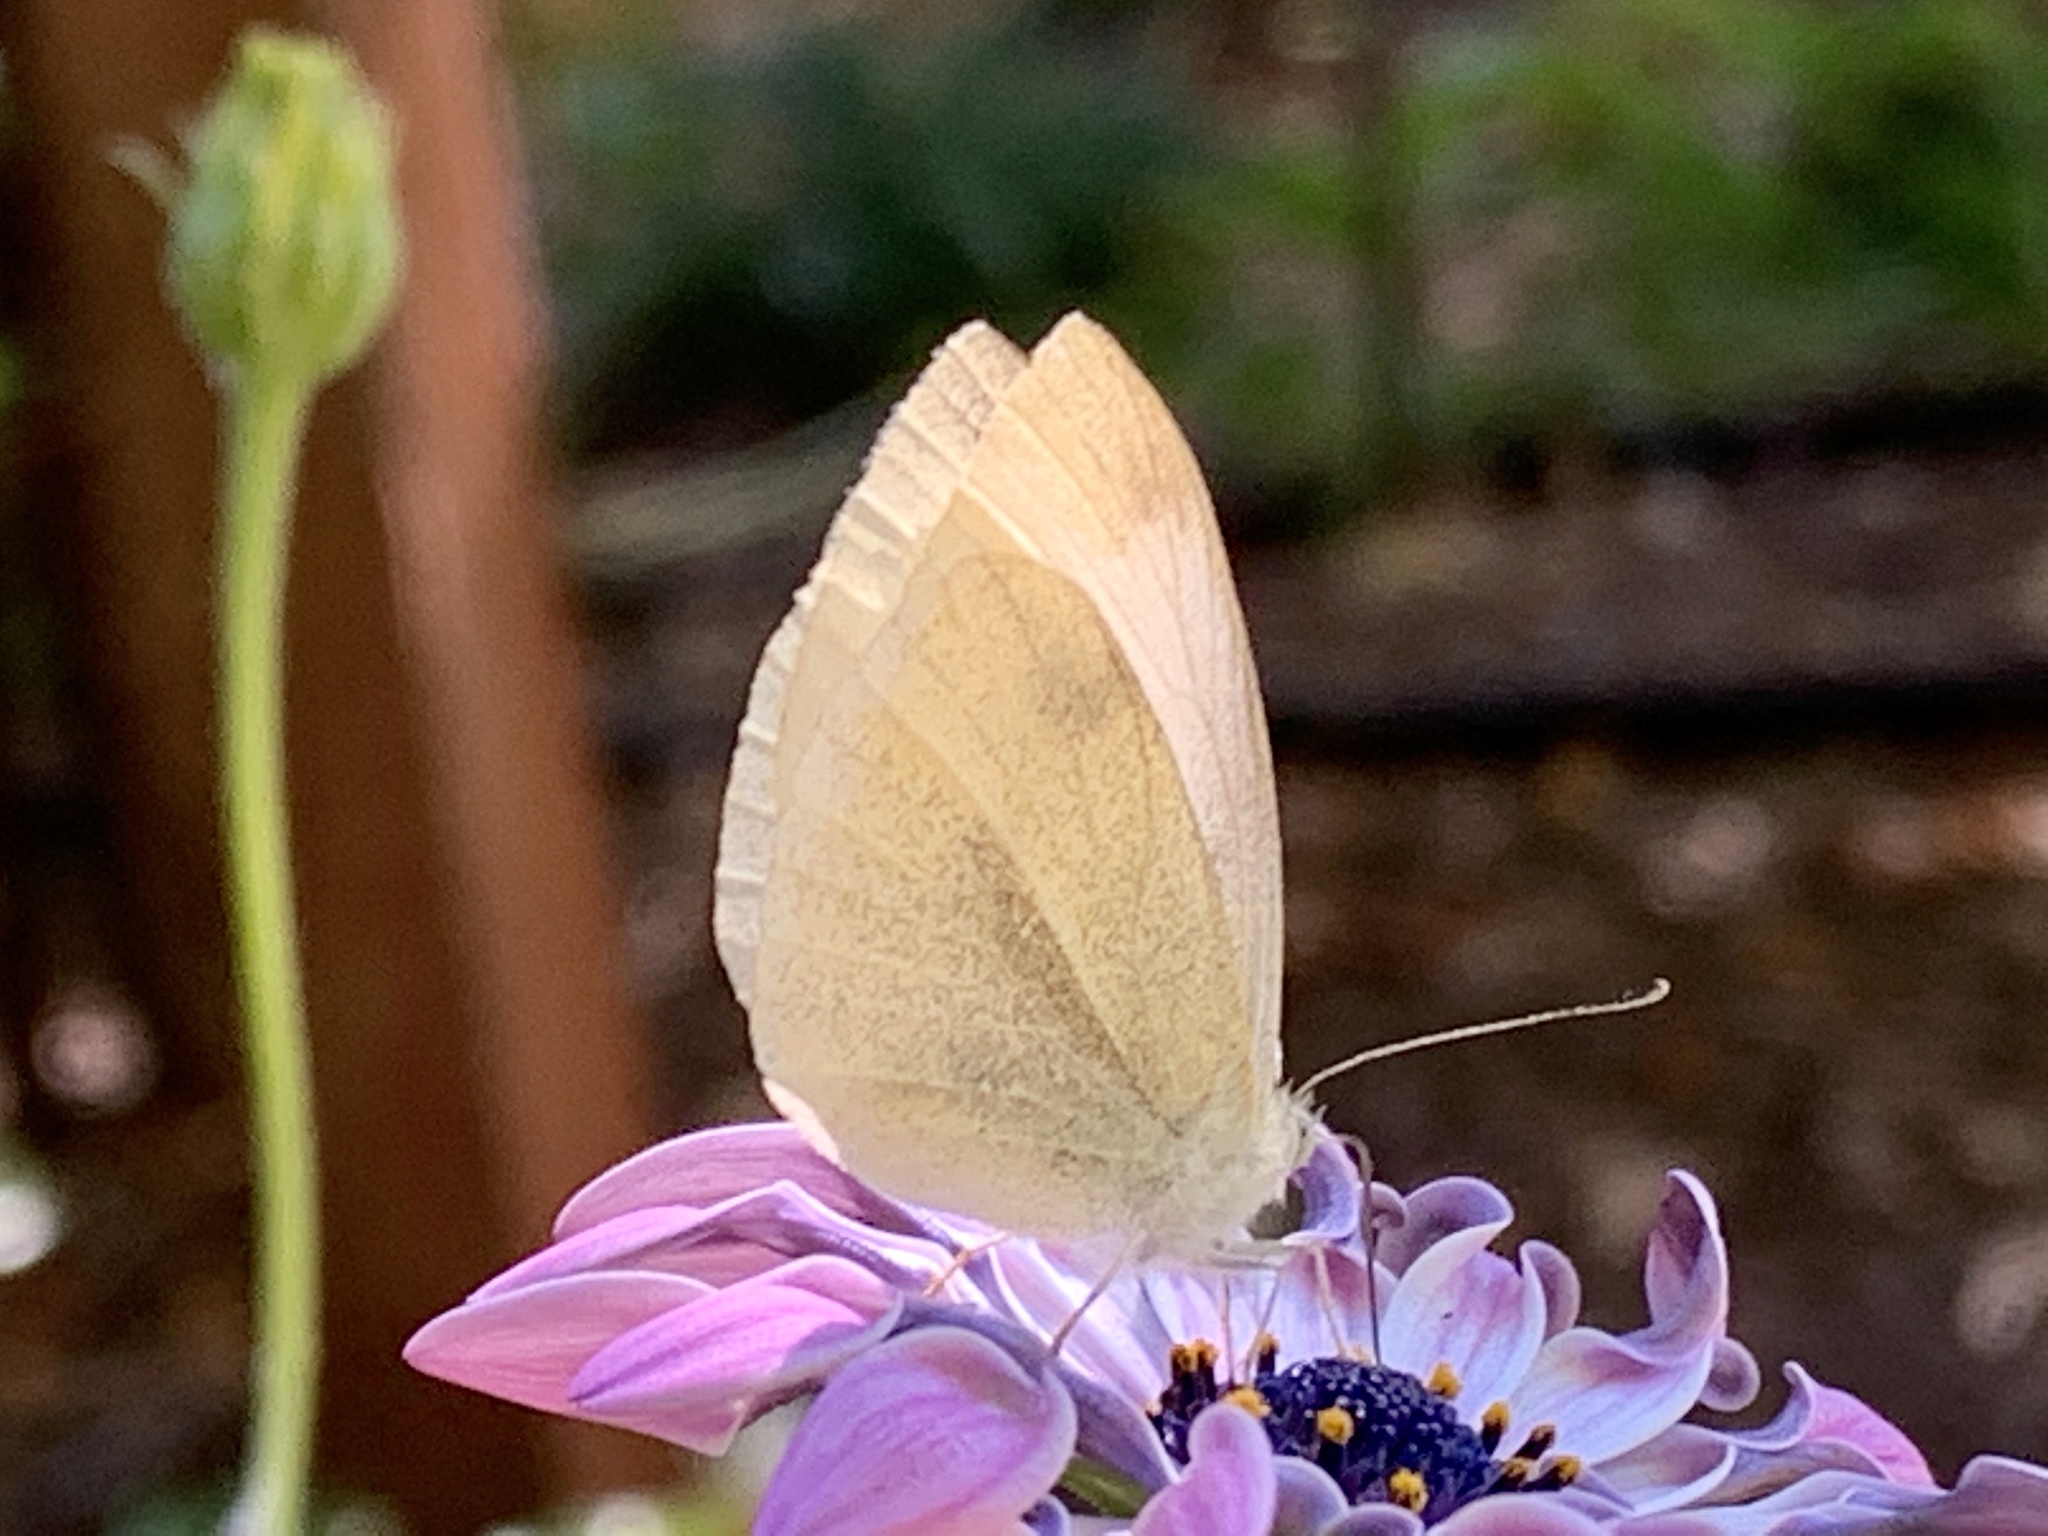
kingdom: Animalia
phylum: Arthropoda
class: Insecta
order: Lepidoptera
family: Pieridae
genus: Pieris
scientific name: Pieris rapae
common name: Small white
